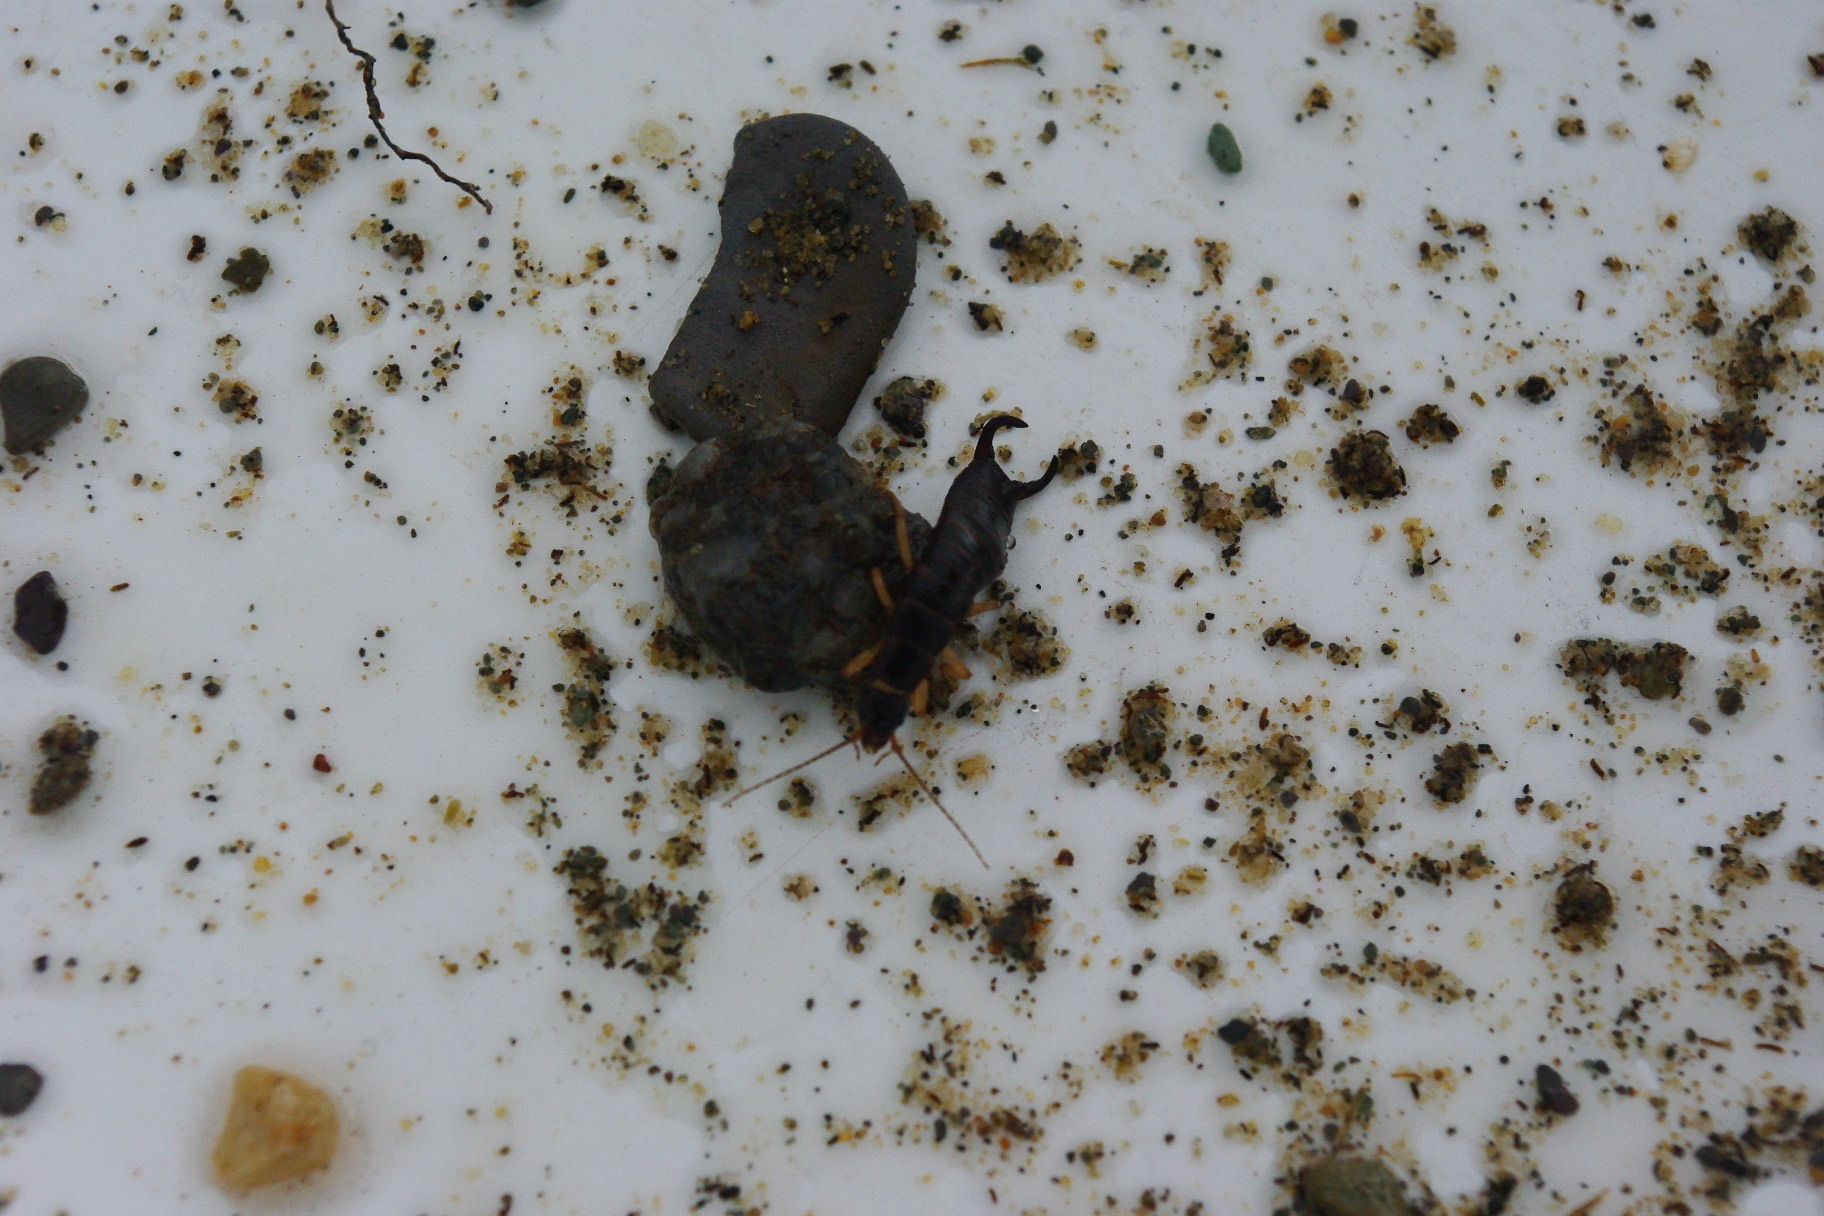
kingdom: Animalia
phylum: Arthropoda
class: Insecta
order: Dermaptera
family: Anisolabididae
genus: Anisolabis
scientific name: Anisolabis maritima
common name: Maritime earwig
